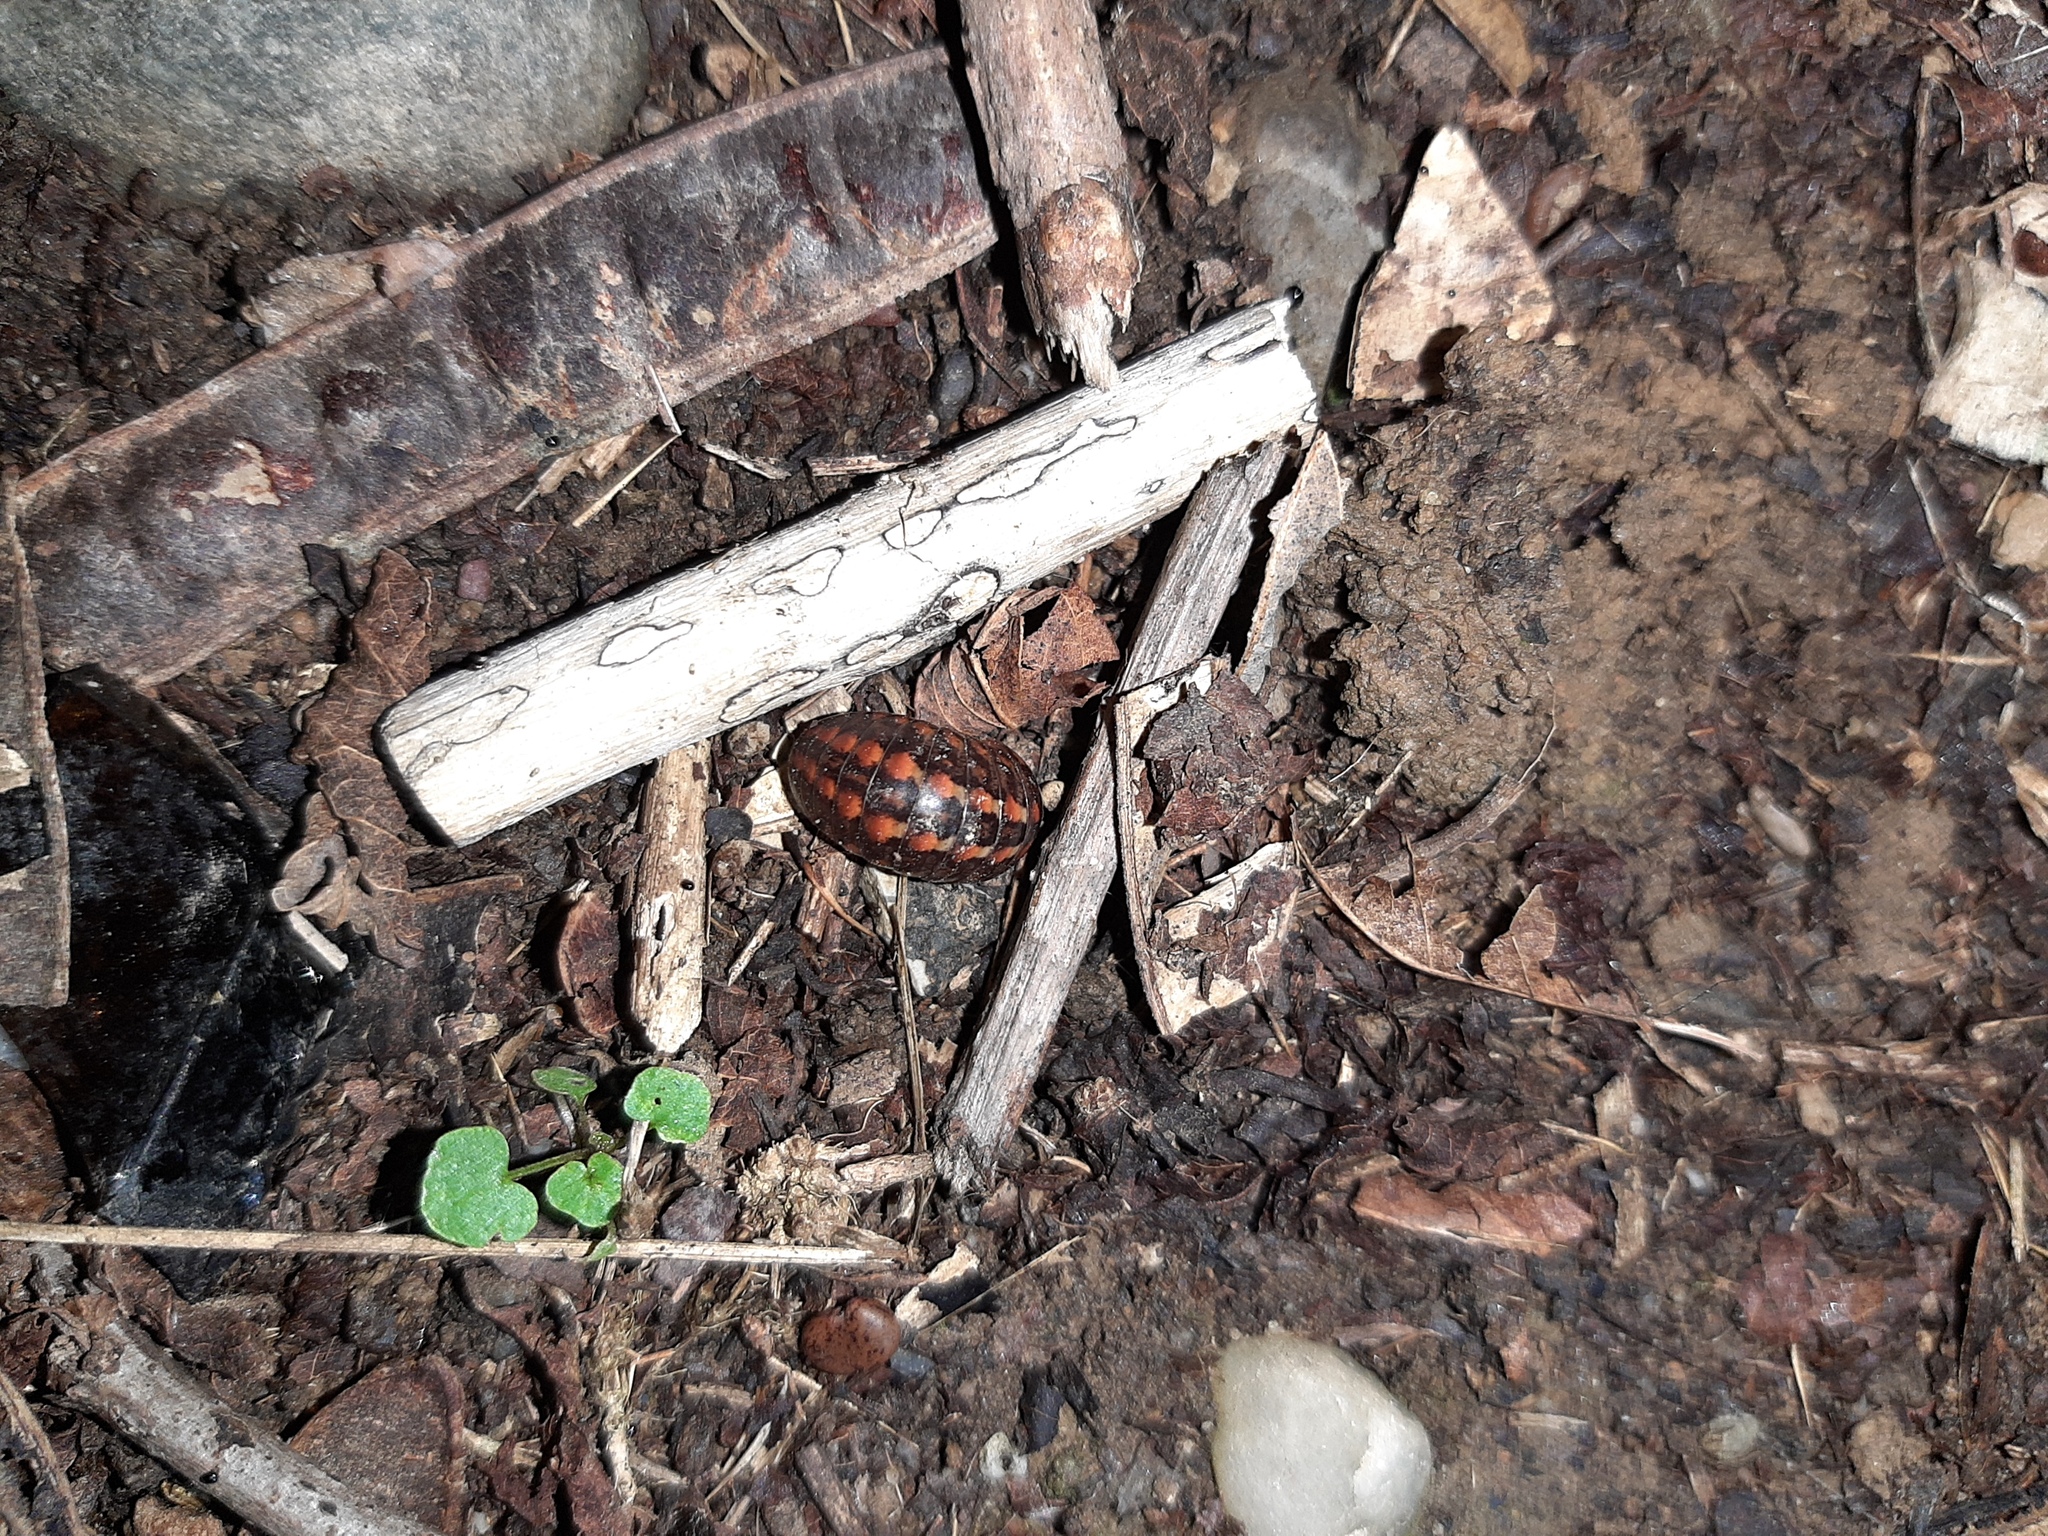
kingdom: Animalia
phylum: Arthropoda
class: Diplopoda
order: Glomerida
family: Glomeridae
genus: Glomeris
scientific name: Glomeris klugii
